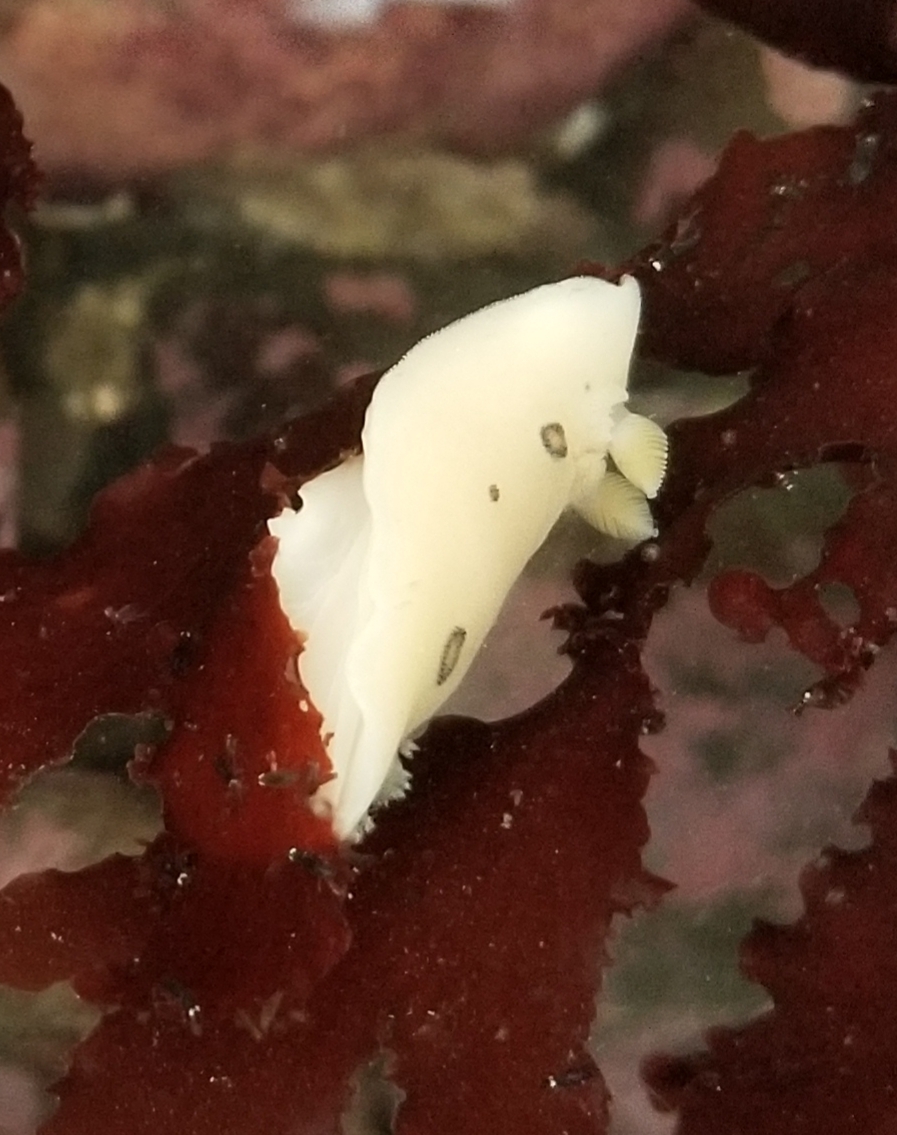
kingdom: Animalia
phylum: Mollusca
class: Gastropoda
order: Nudibranchia
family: Discodorididae
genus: Diaulula
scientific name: Diaulula sandiegensis
